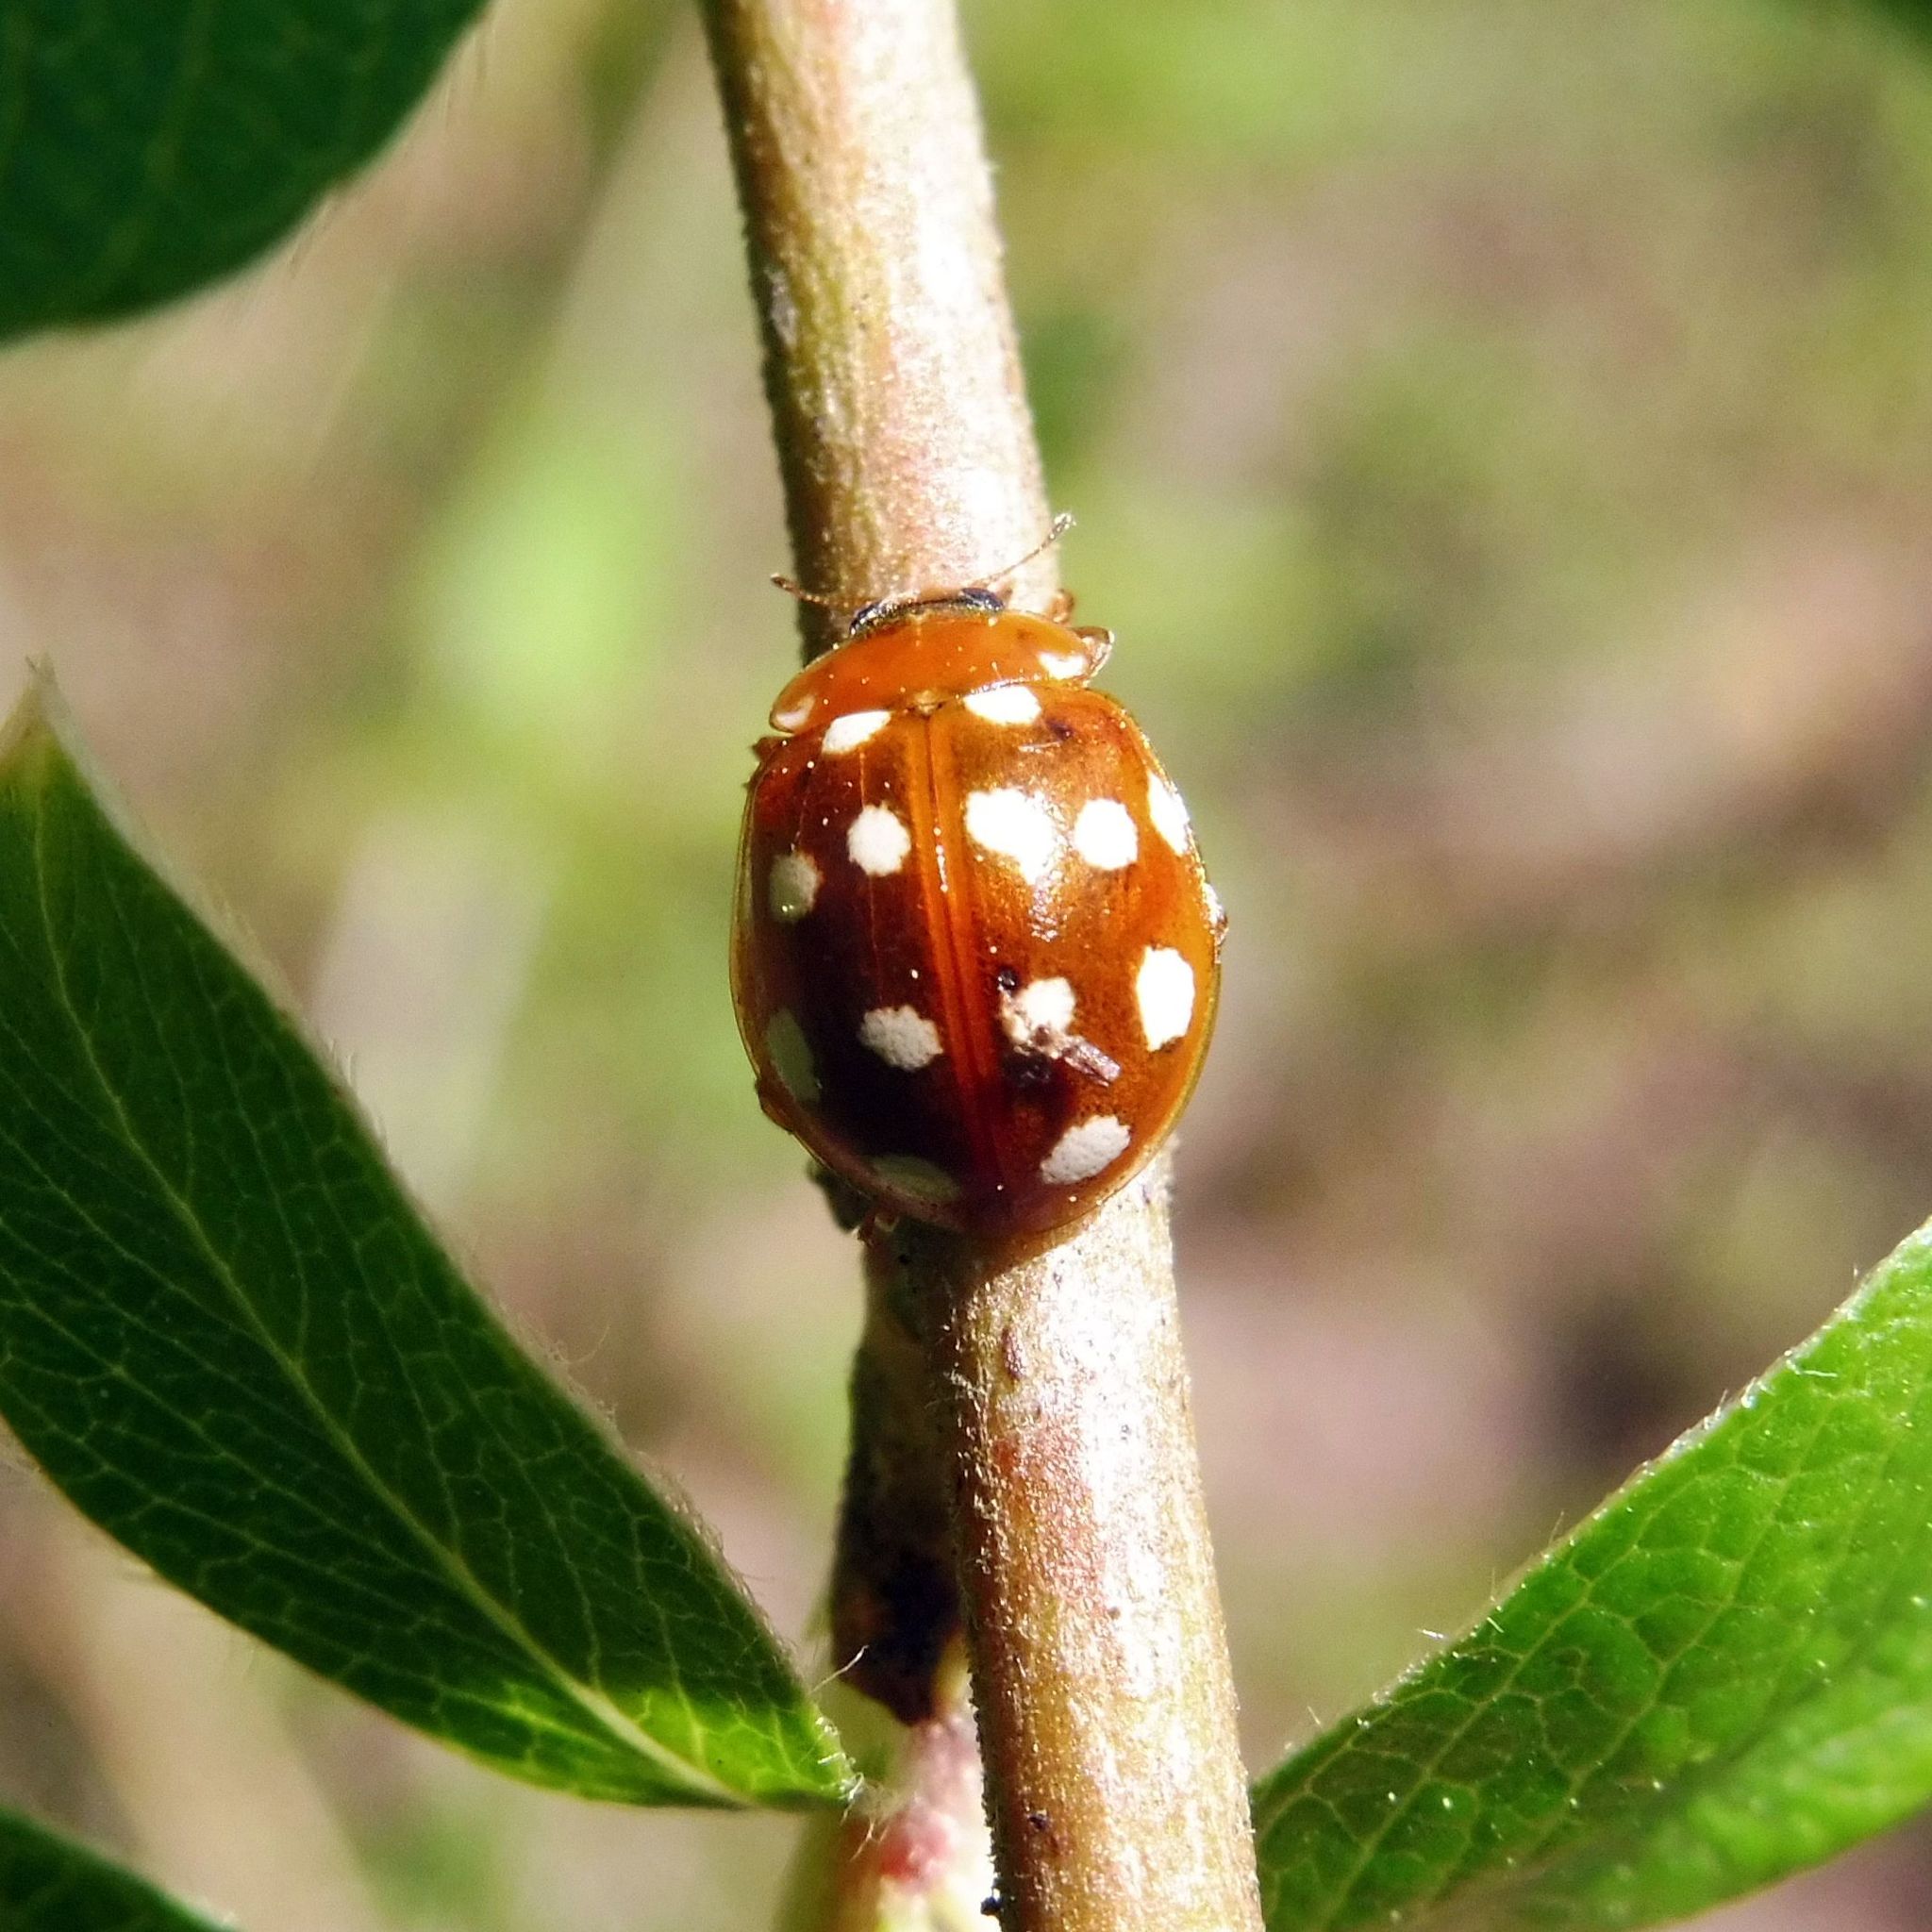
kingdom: Animalia
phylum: Arthropoda
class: Insecta
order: Coleoptera
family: Coccinellidae
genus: Calvia
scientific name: Calvia quatuordecimguttata
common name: Cream-spot ladybird
